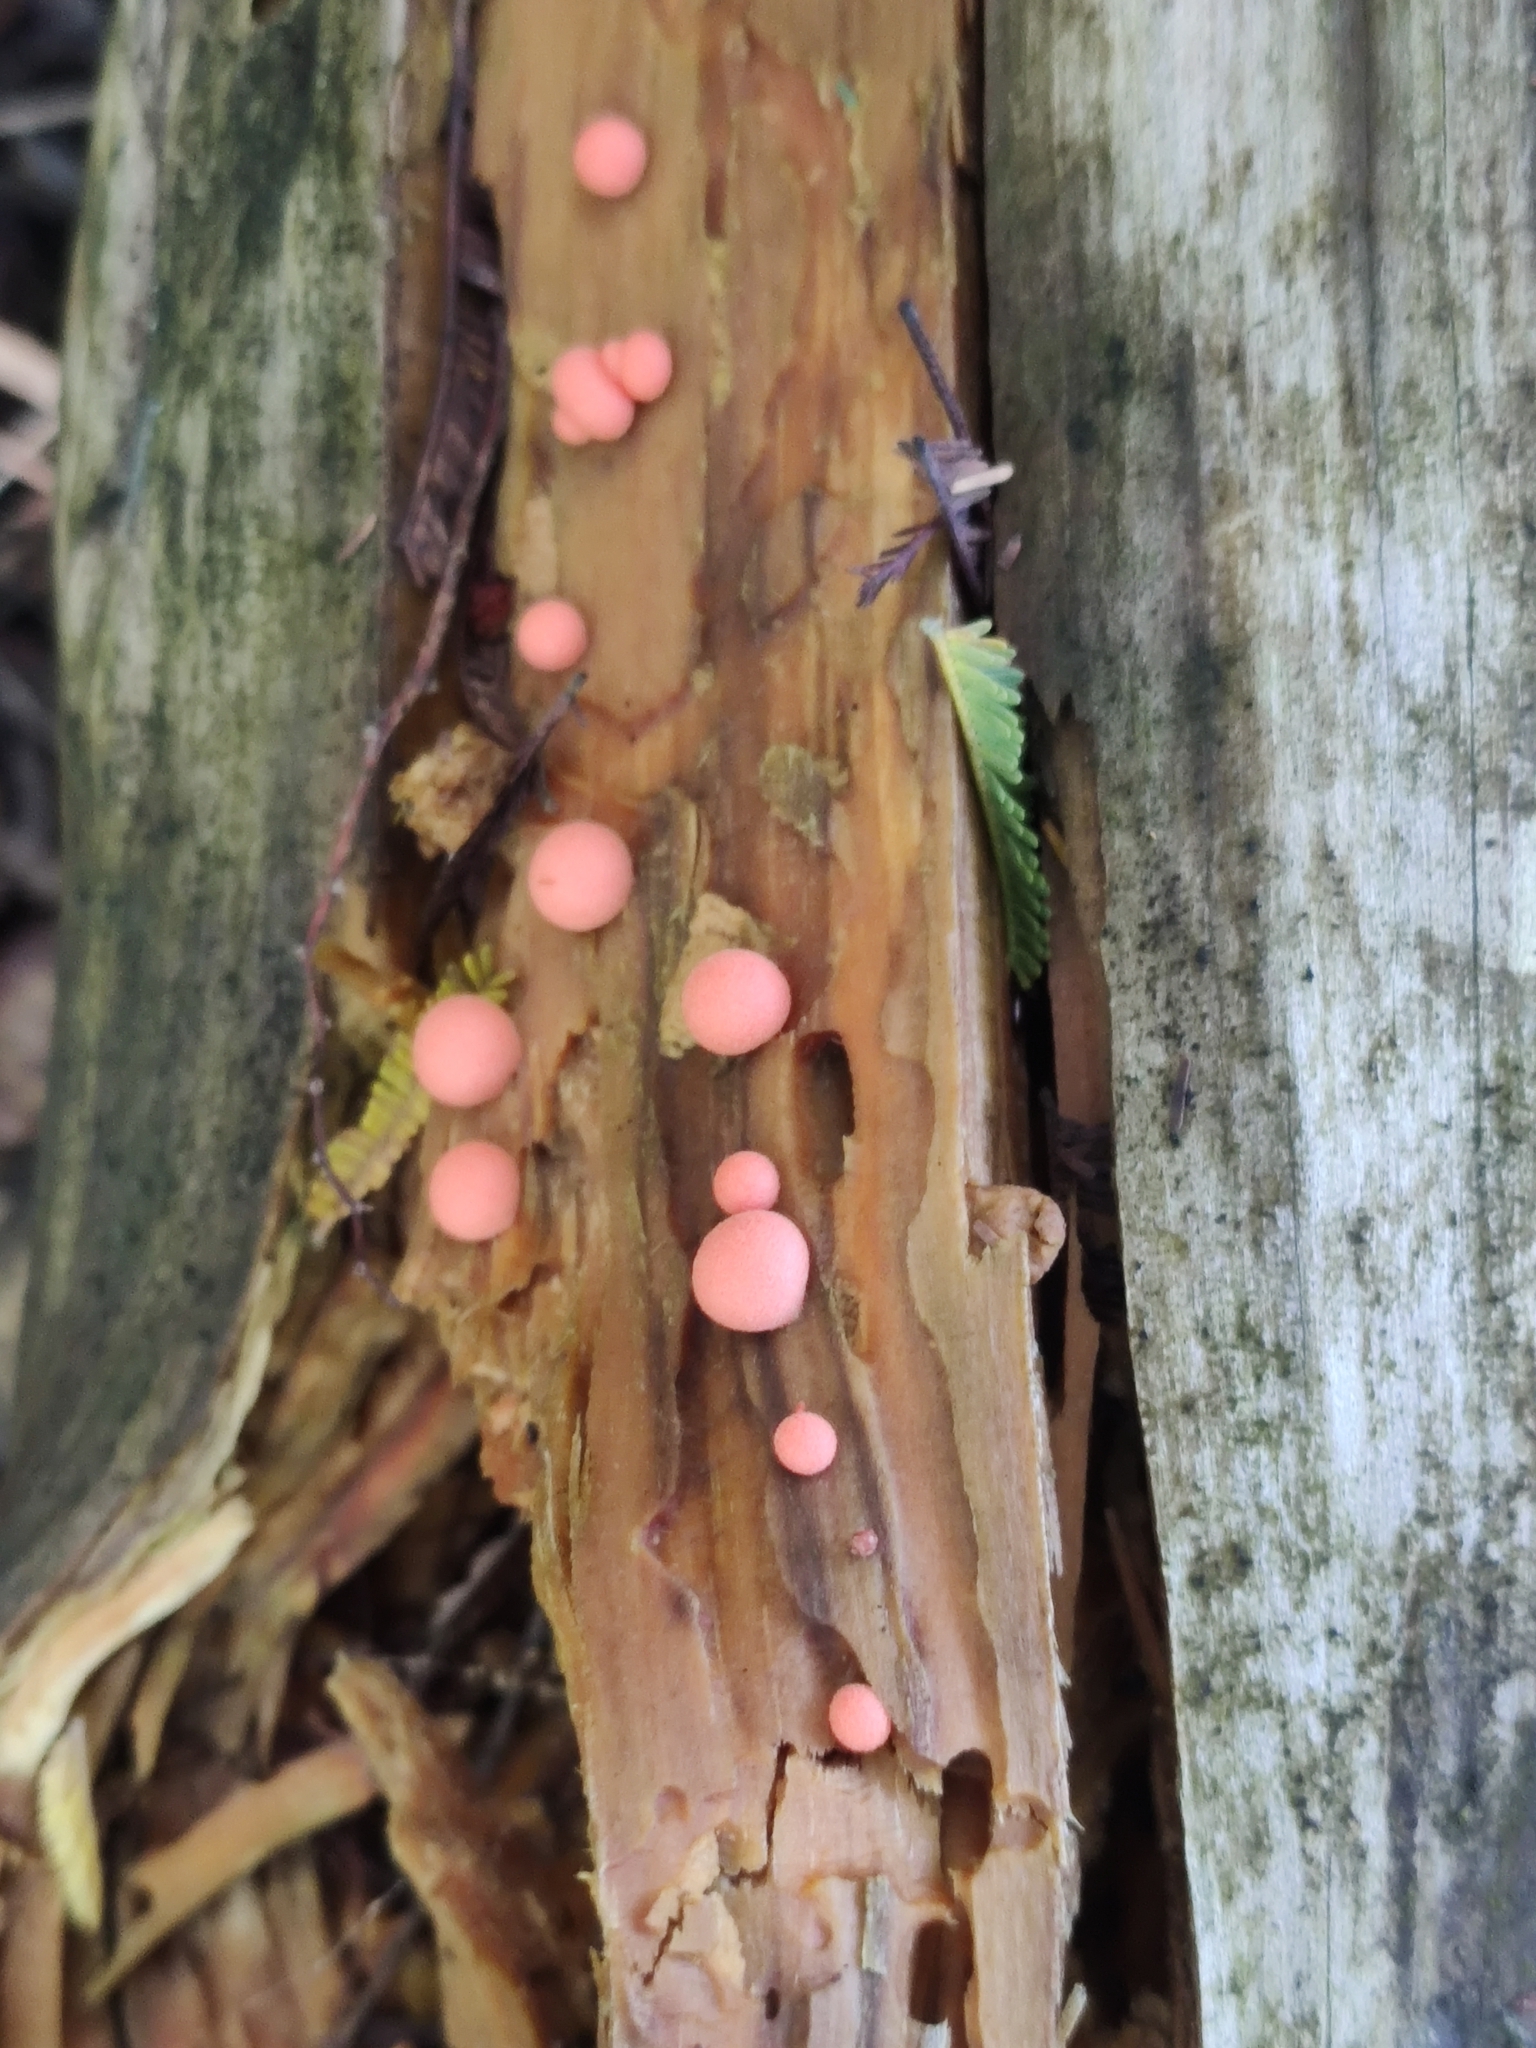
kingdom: Protozoa
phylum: Mycetozoa
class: Myxomycetes
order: Cribrariales
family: Tubiferaceae
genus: Lycogala
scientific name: Lycogala epidendrum
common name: Wolf's milk
